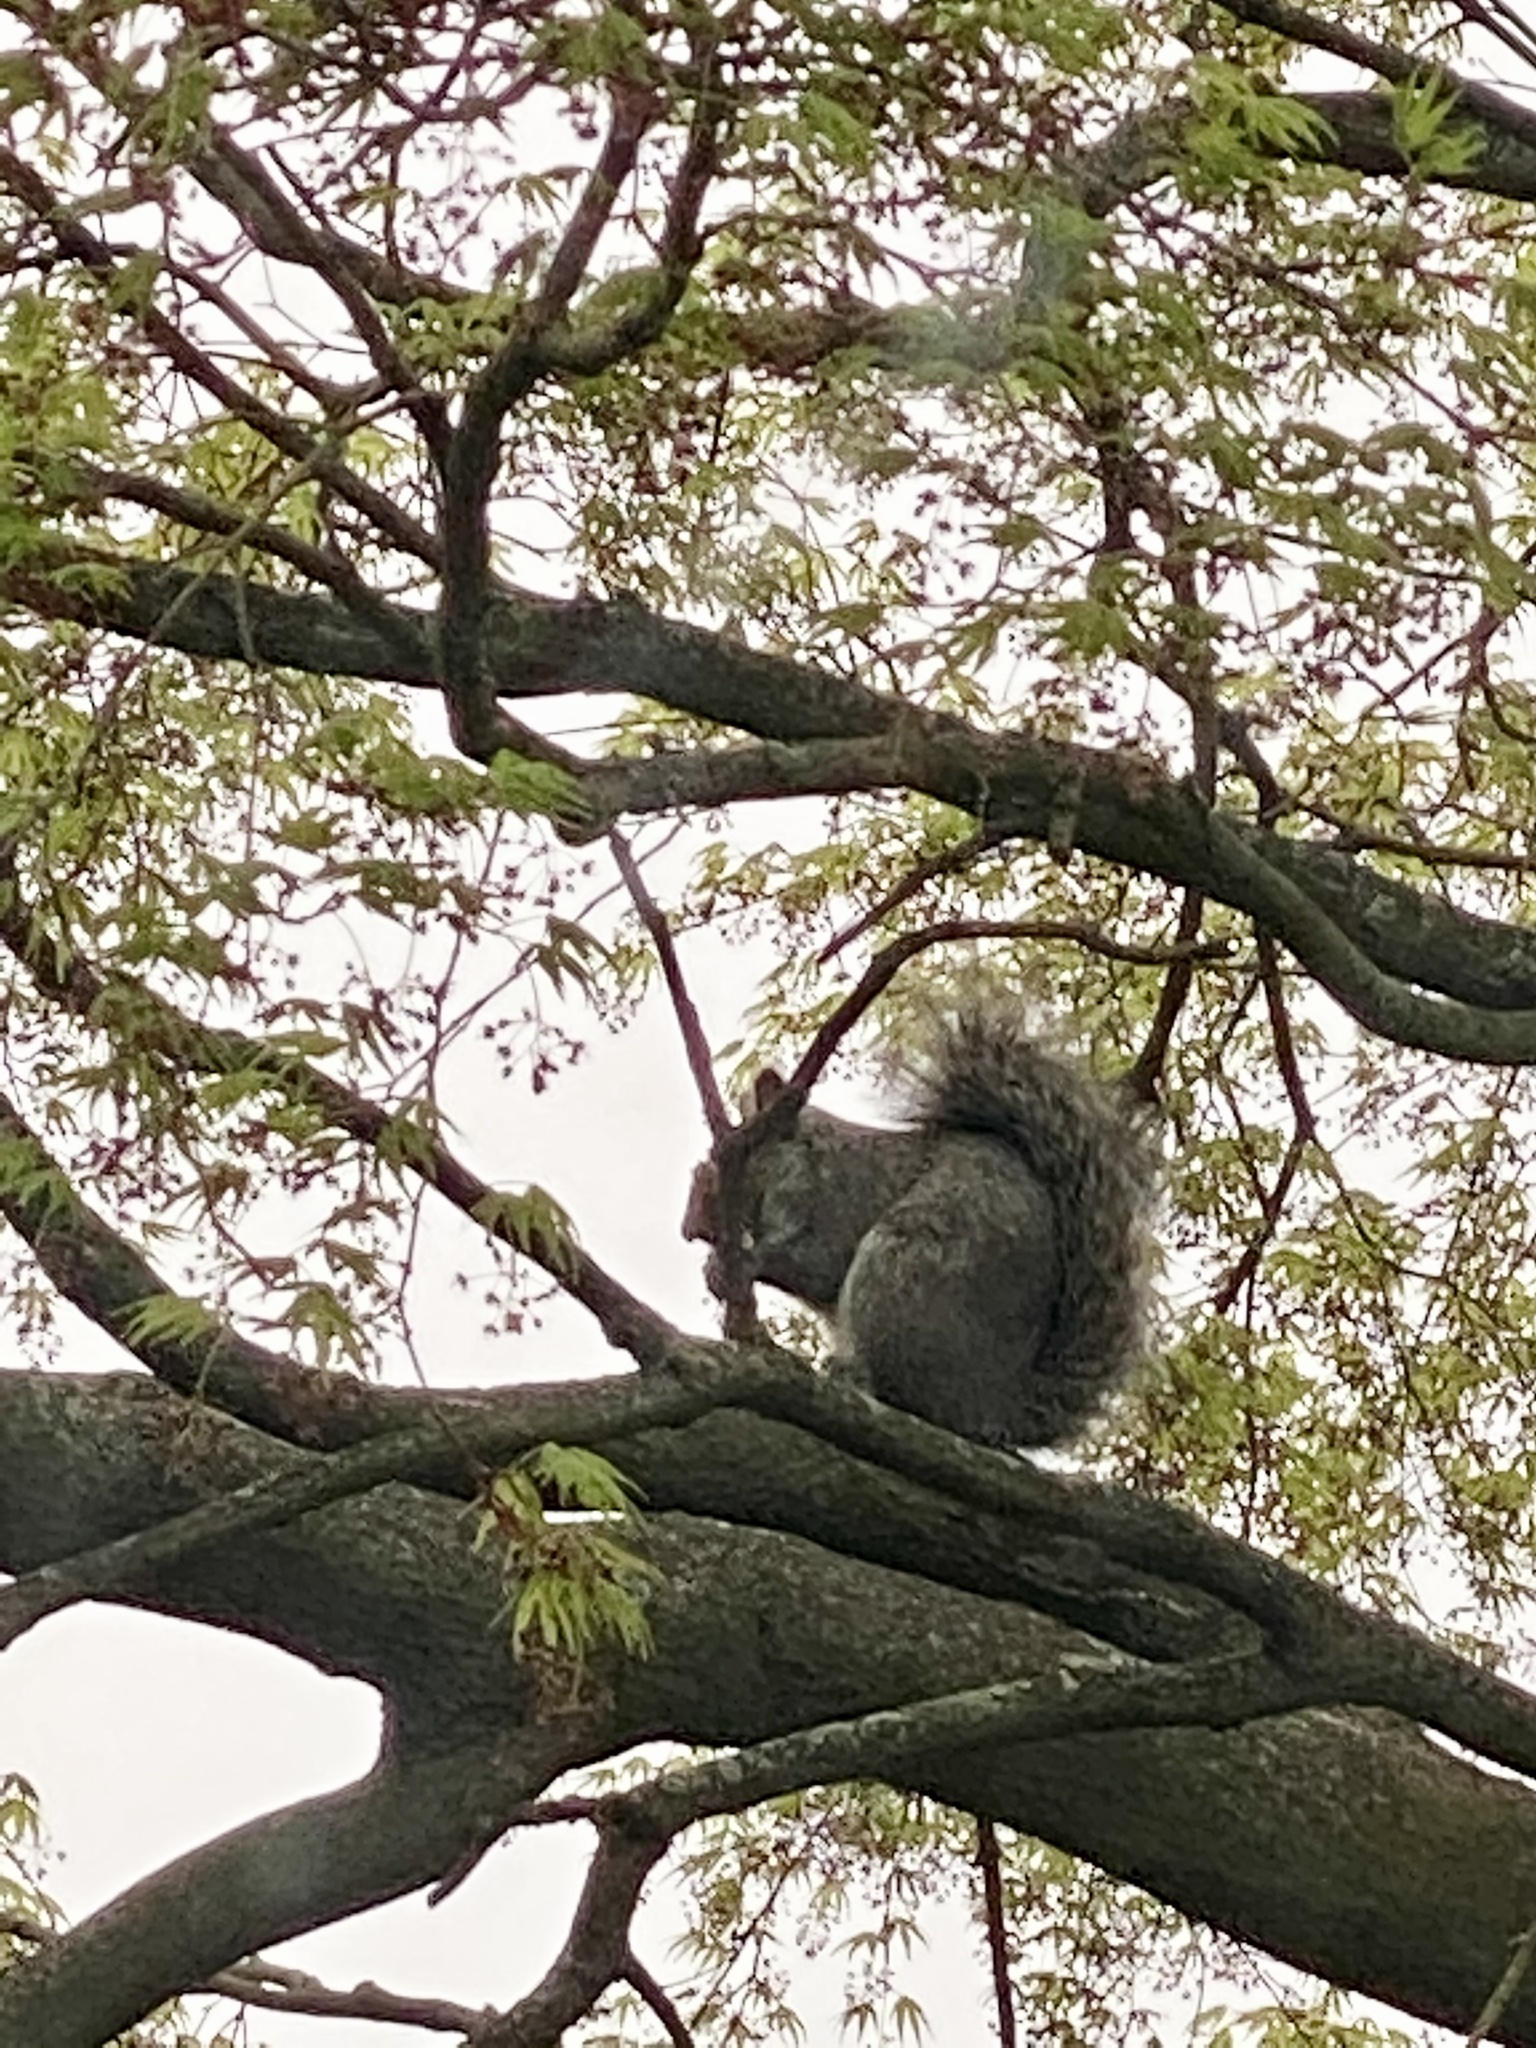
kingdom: Animalia
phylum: Chordata
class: Mammalia
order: Rodentia
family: Sciuridae
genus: Sciurus
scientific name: Sciurus carolinensis
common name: Eastern gray squirrel
